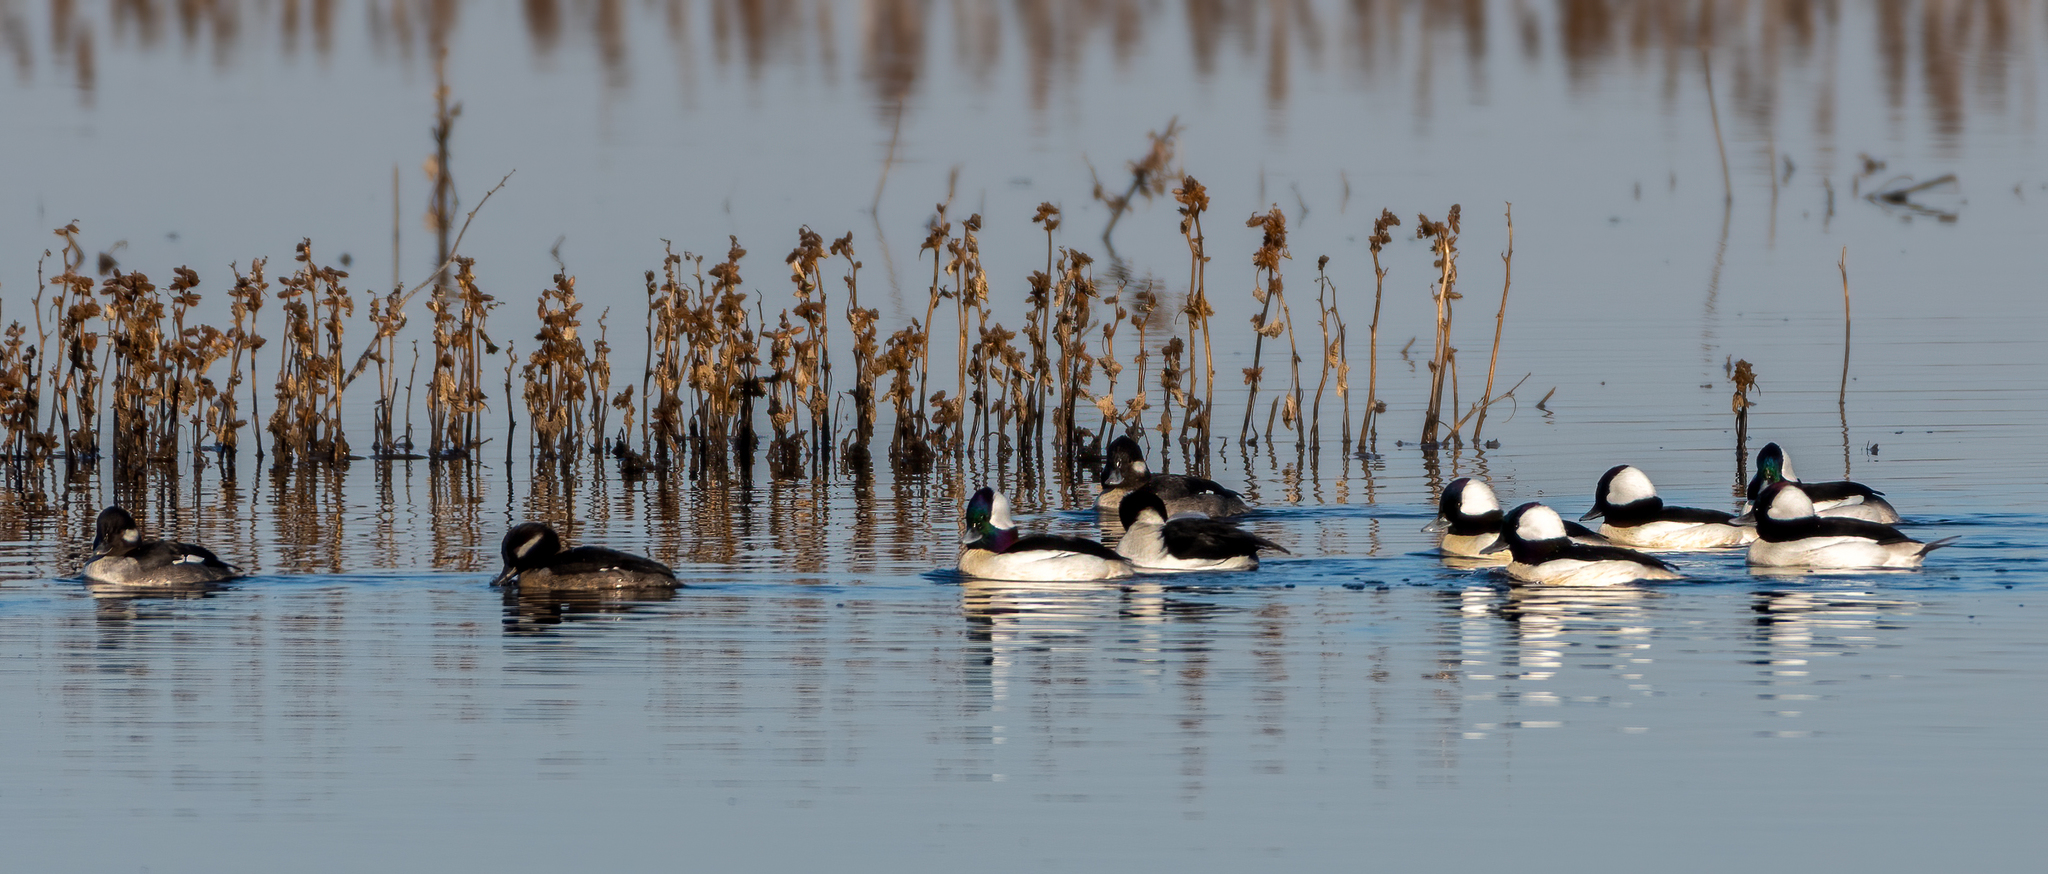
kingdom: Animalia
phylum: Chordata
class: Aves
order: Anseriformes
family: Anatidae
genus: Bucephala
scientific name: Bucephala albeola
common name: Bufflehead
